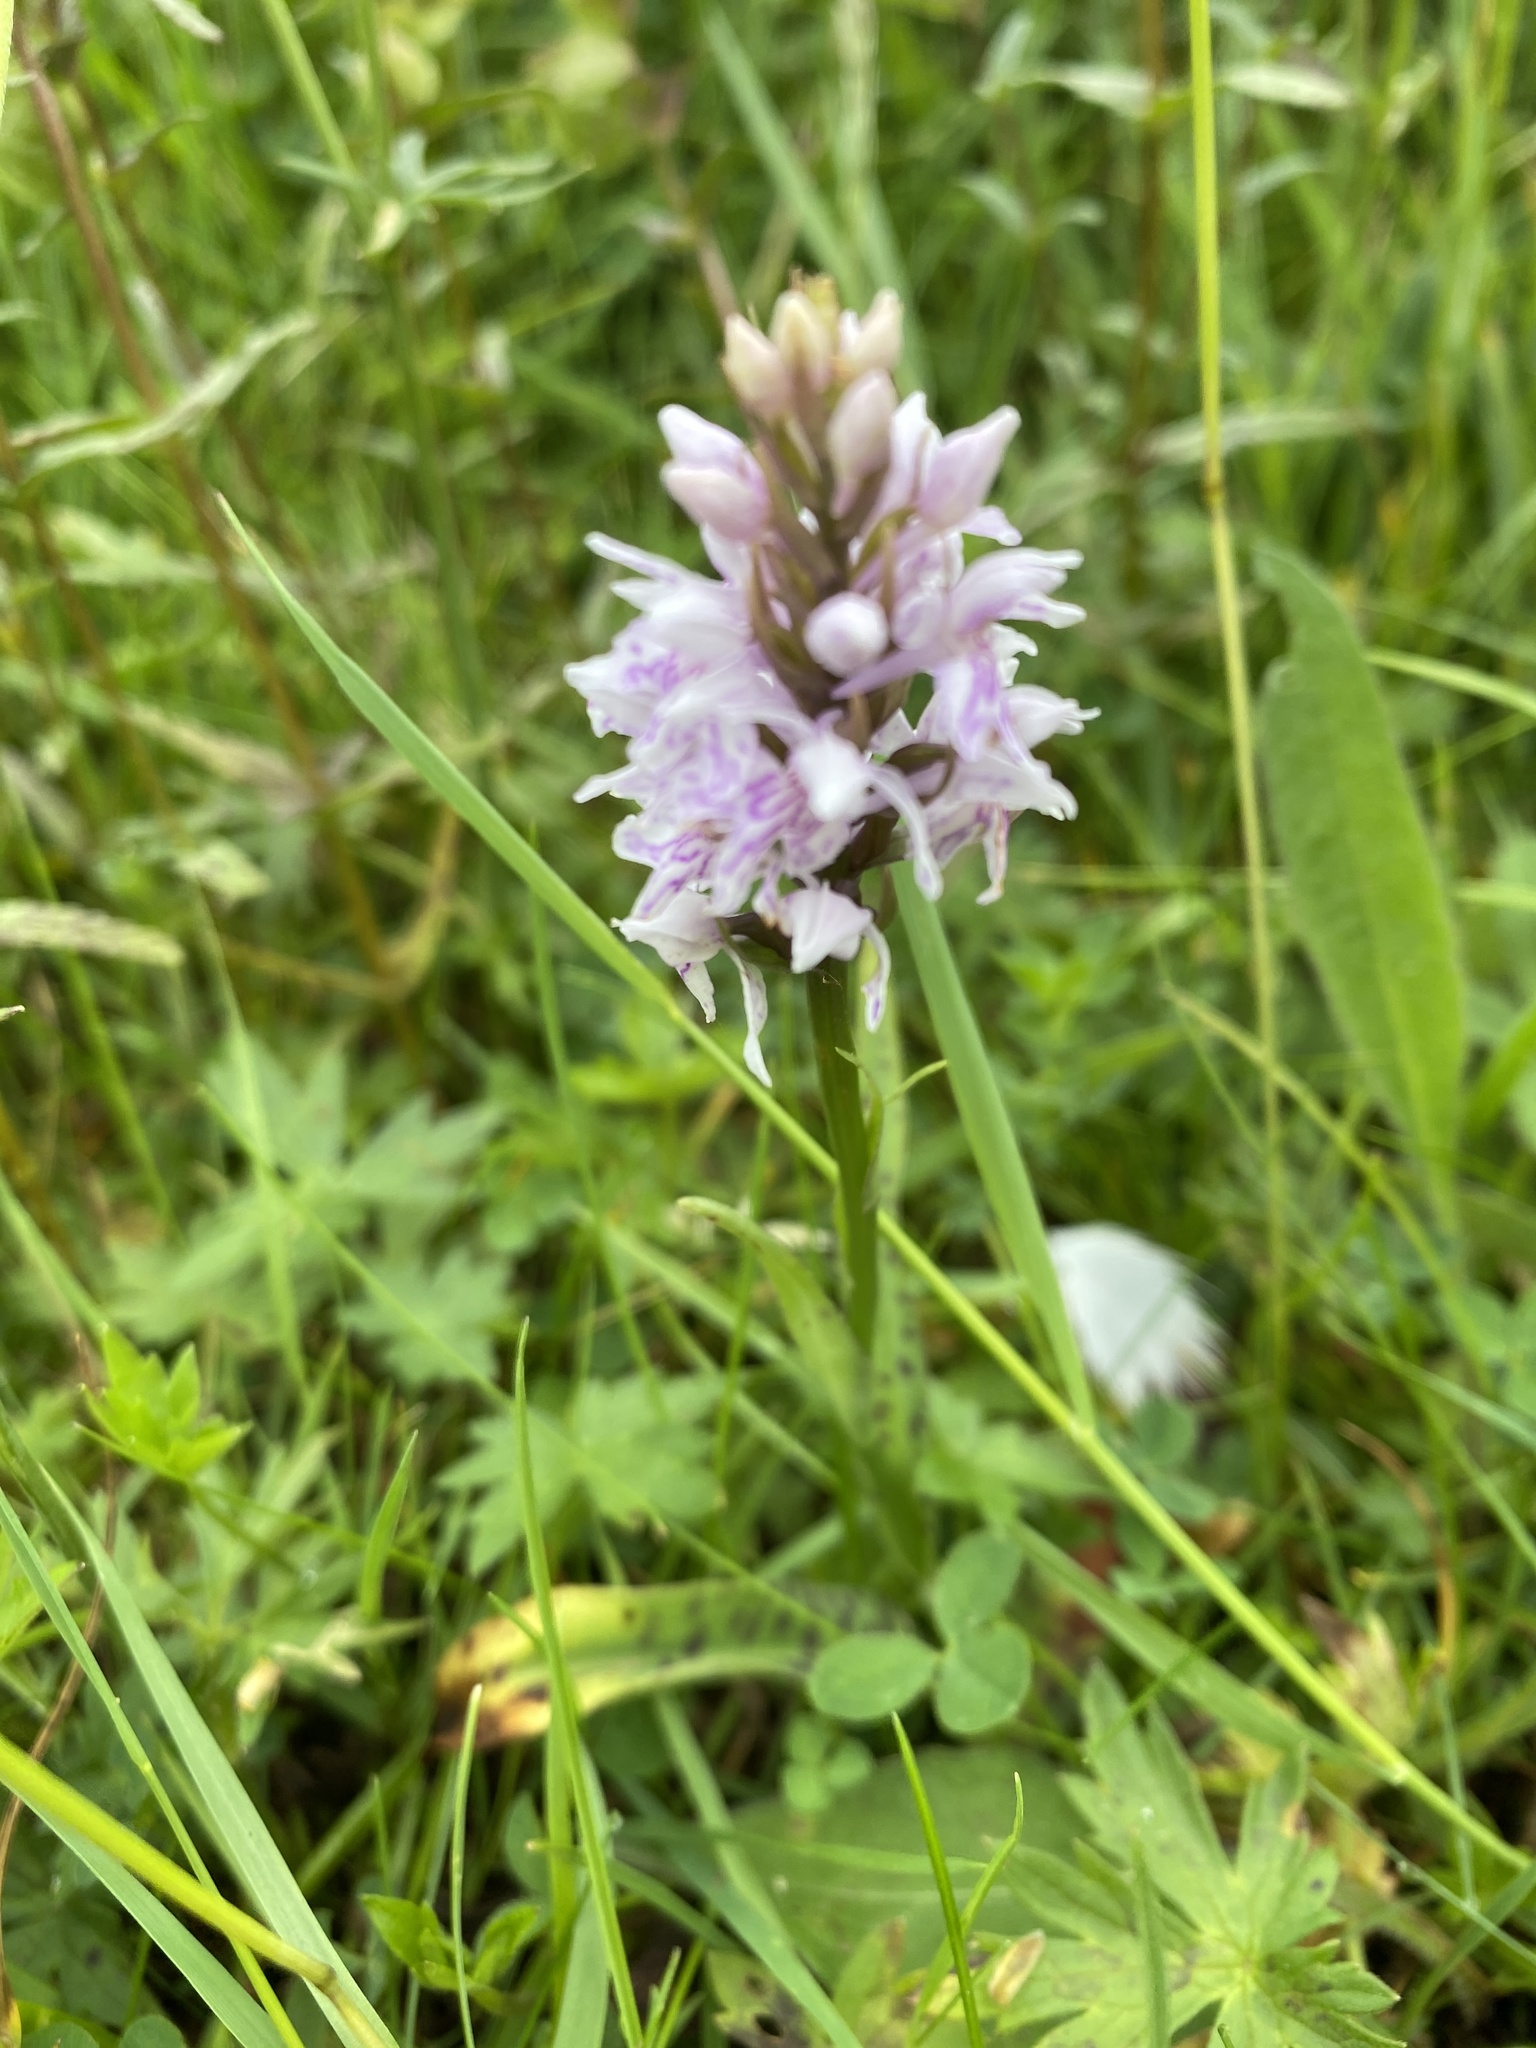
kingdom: Plantae
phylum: Tracheophyta
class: Liliopsida
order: Asparagales
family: Orchidaceae
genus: Dactylorhiza
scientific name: Dactylorhiza maculata
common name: Heath spotted-orchid
